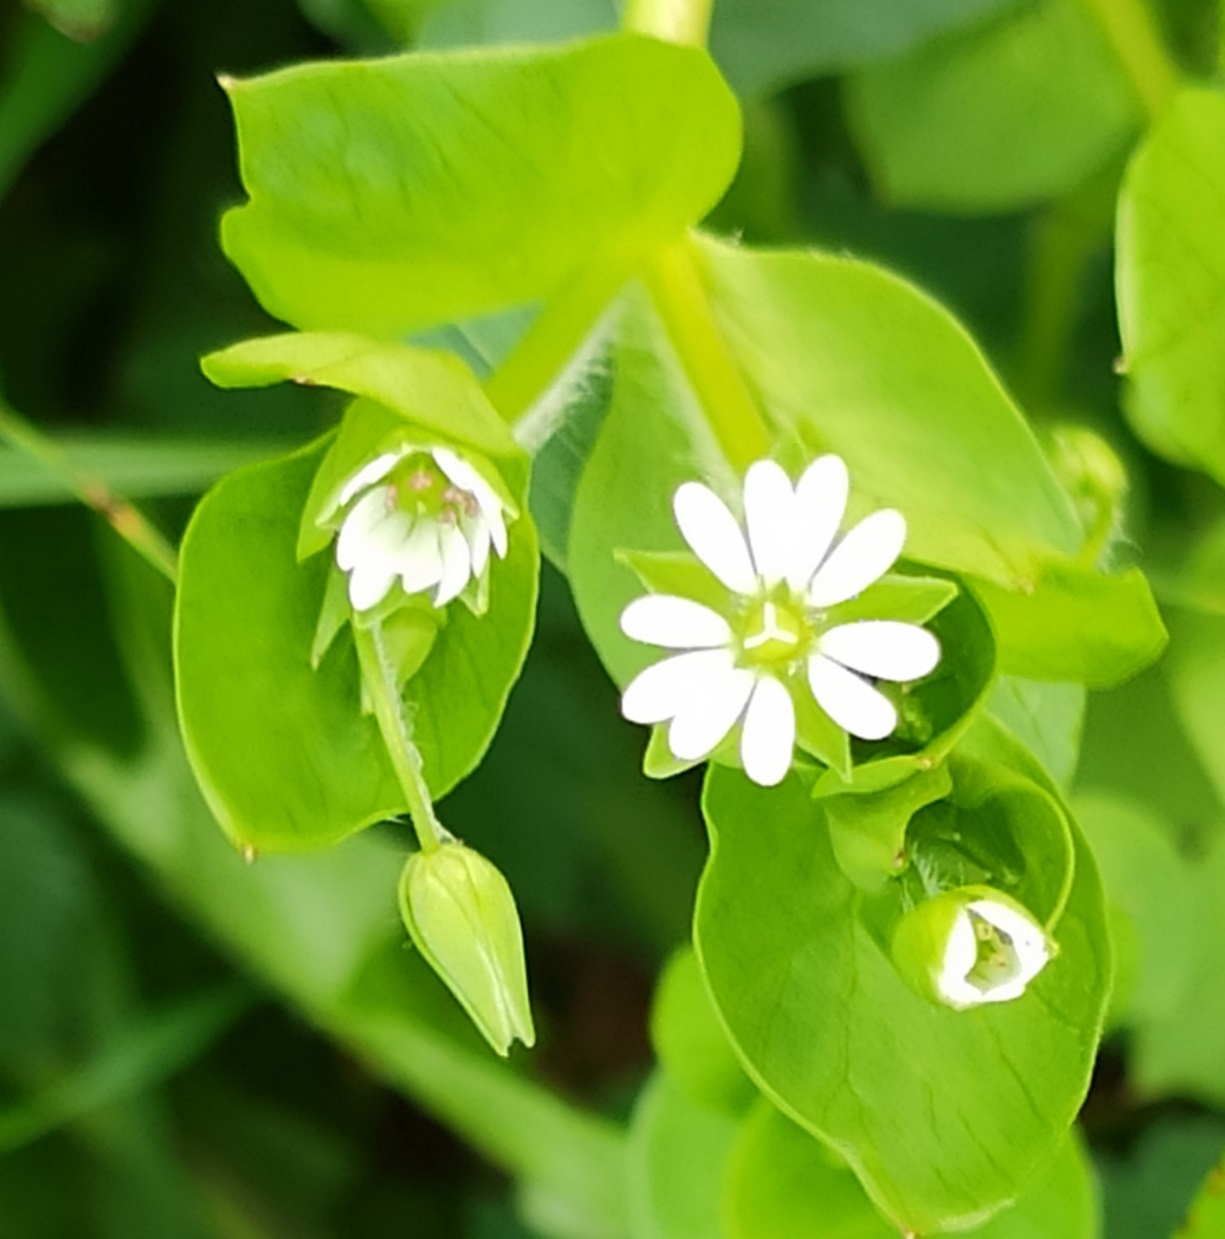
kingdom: Plantae
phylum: Tracheophyta
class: Magnoliopsida
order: Caryophyllales
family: Caryophyllaceae
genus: Stellaria
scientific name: Stellaria media
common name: Common chickweed
